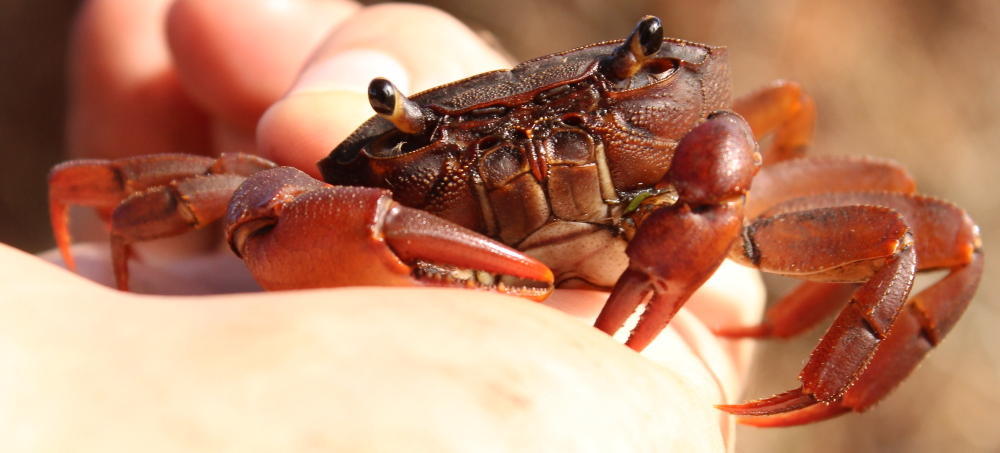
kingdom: Animalia
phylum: Arthropoda
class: Malacostraca
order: Decapoda
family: Potamonautidae
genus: Potamonautes
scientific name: Potamonautes sidneyi
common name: Natal river crab
